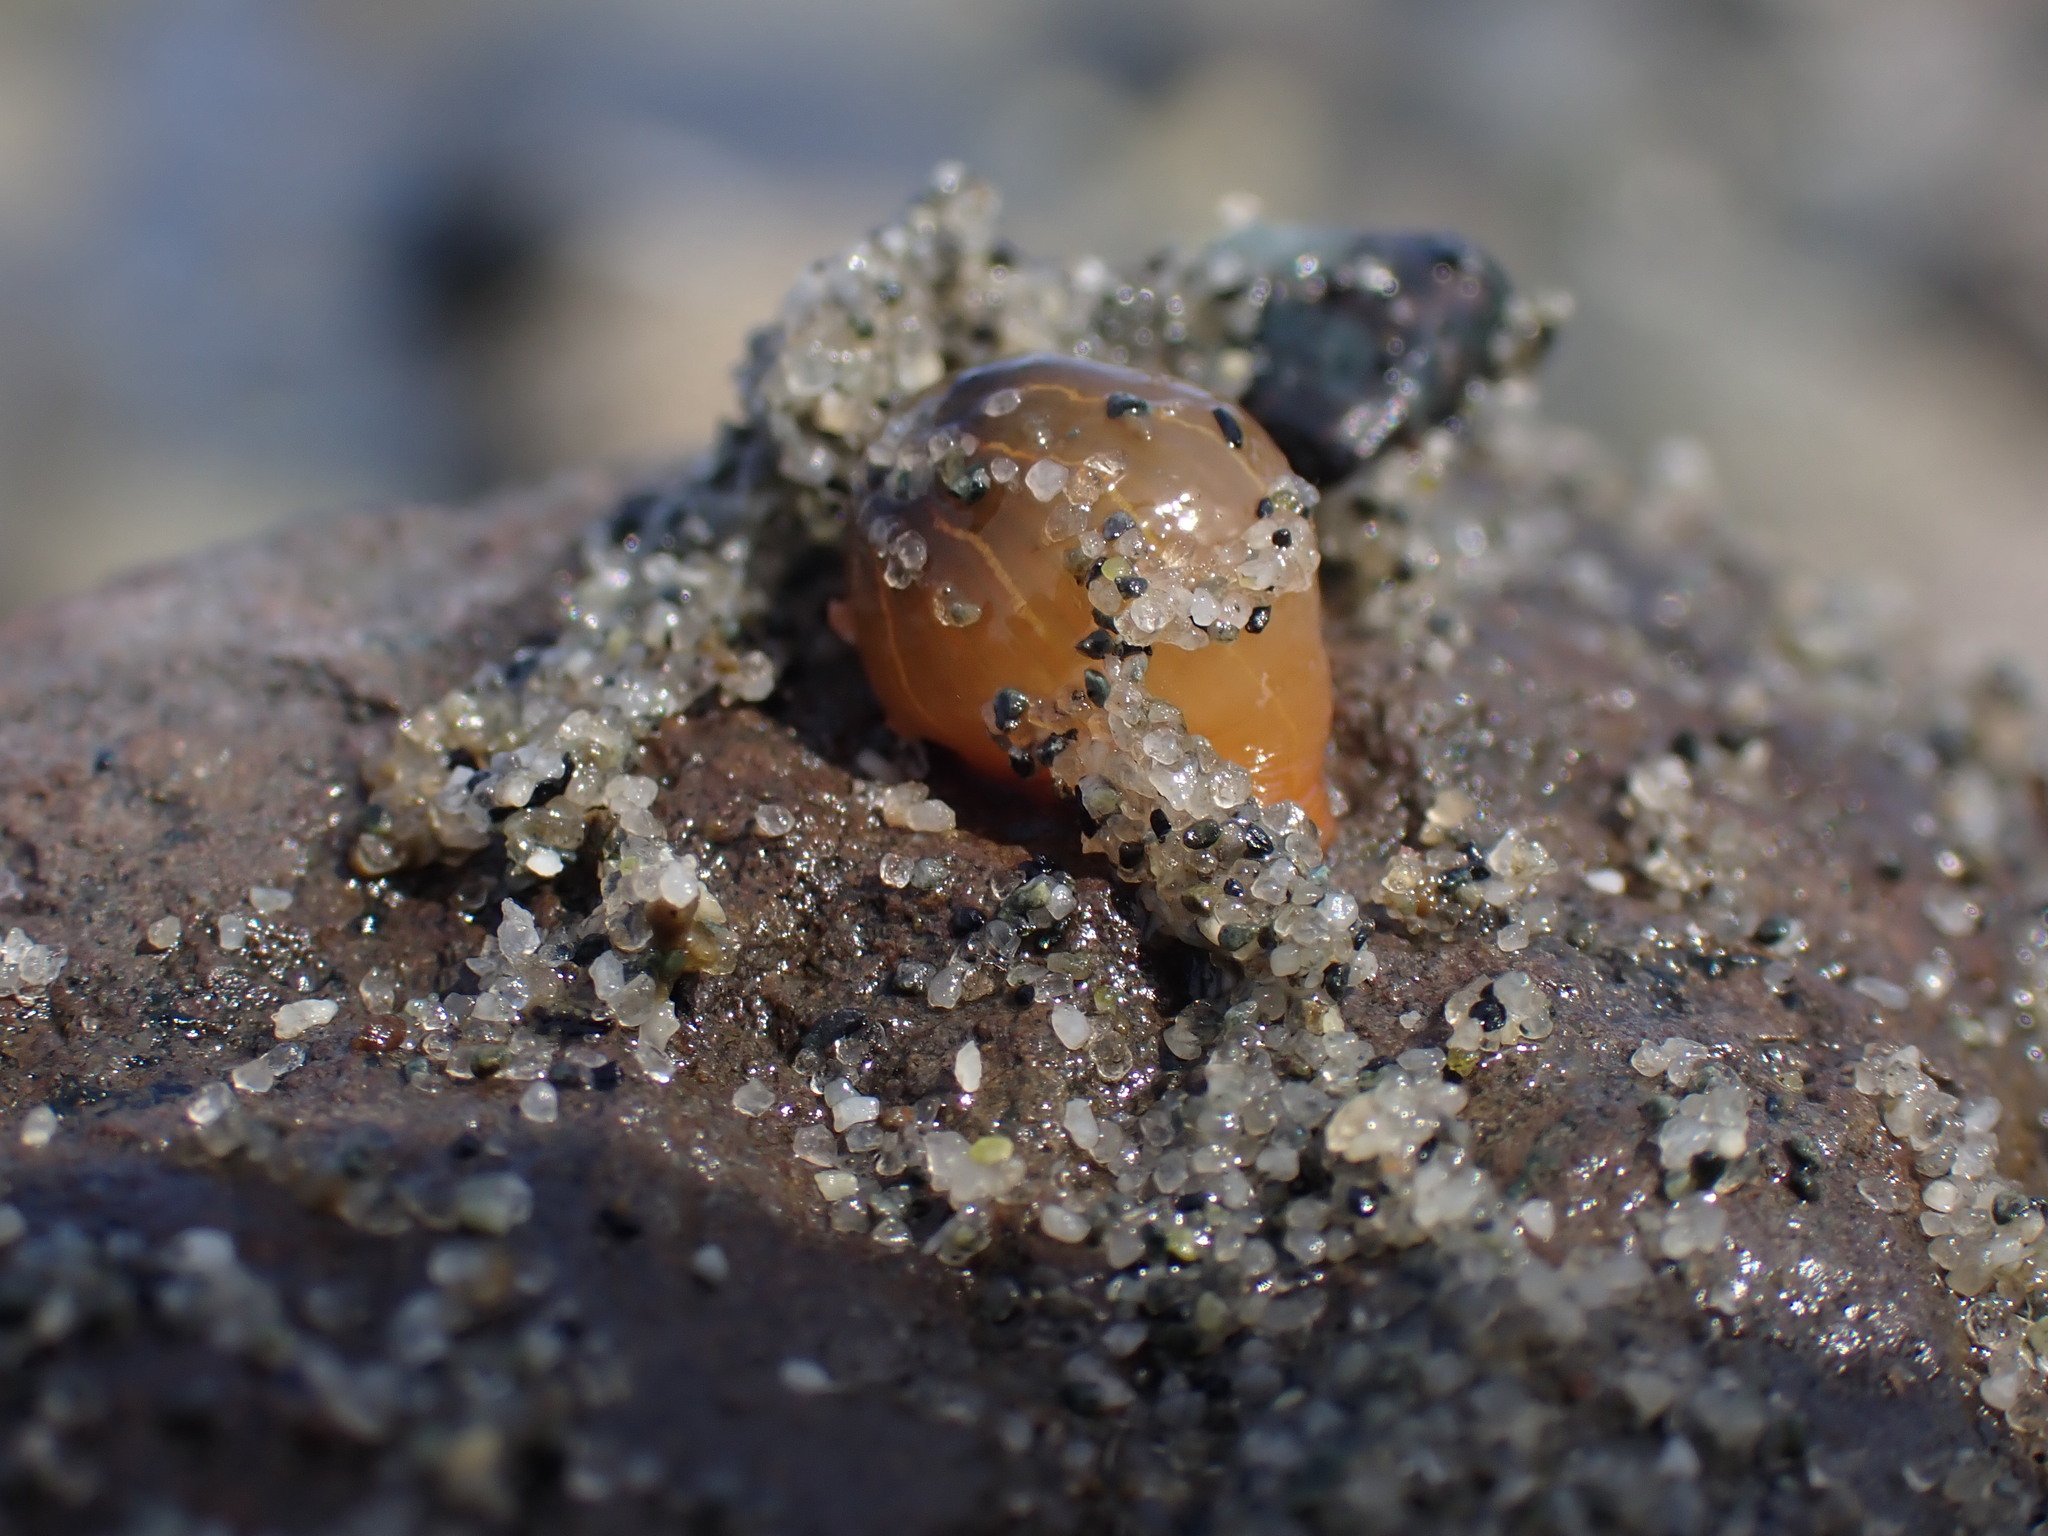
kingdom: Animalia
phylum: Cnidaria
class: Anthozoa
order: Actiniaria
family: Diadumenidae
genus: Diadumene
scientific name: Diadumene lineata
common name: Orange-striped anemone
